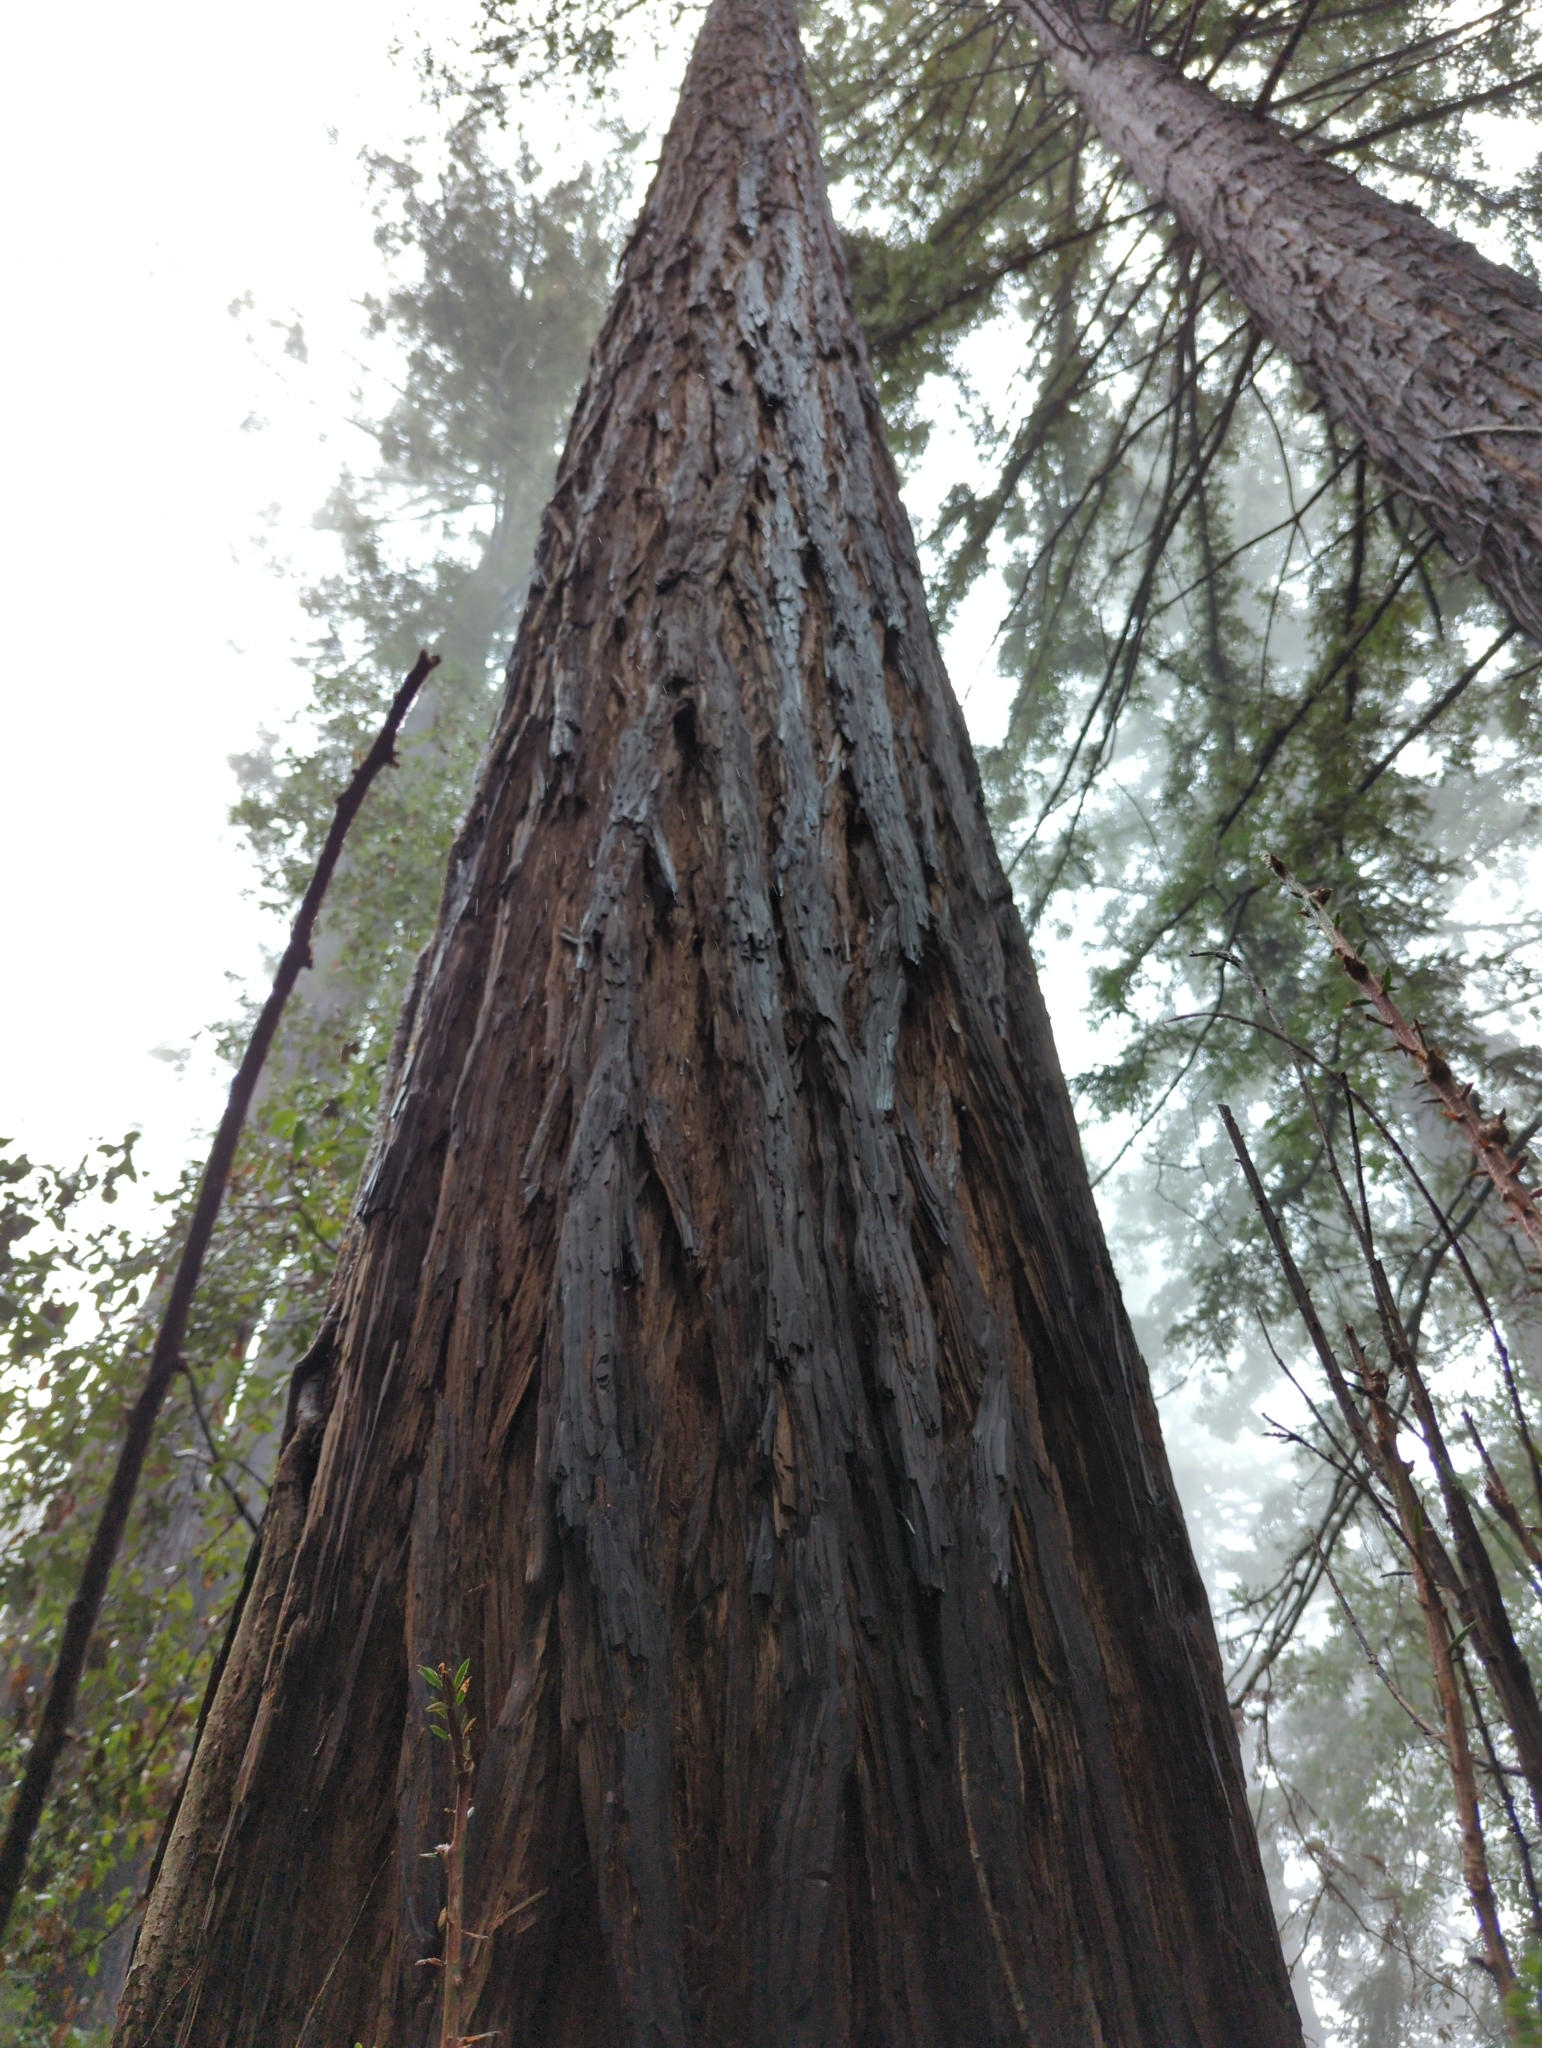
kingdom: Plantae
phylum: Tracheophyta
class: Pinopsida
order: Pinales
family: Cupressaceae
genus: Sequoia
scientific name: Sequoia sempervirens
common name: Coast redwood
